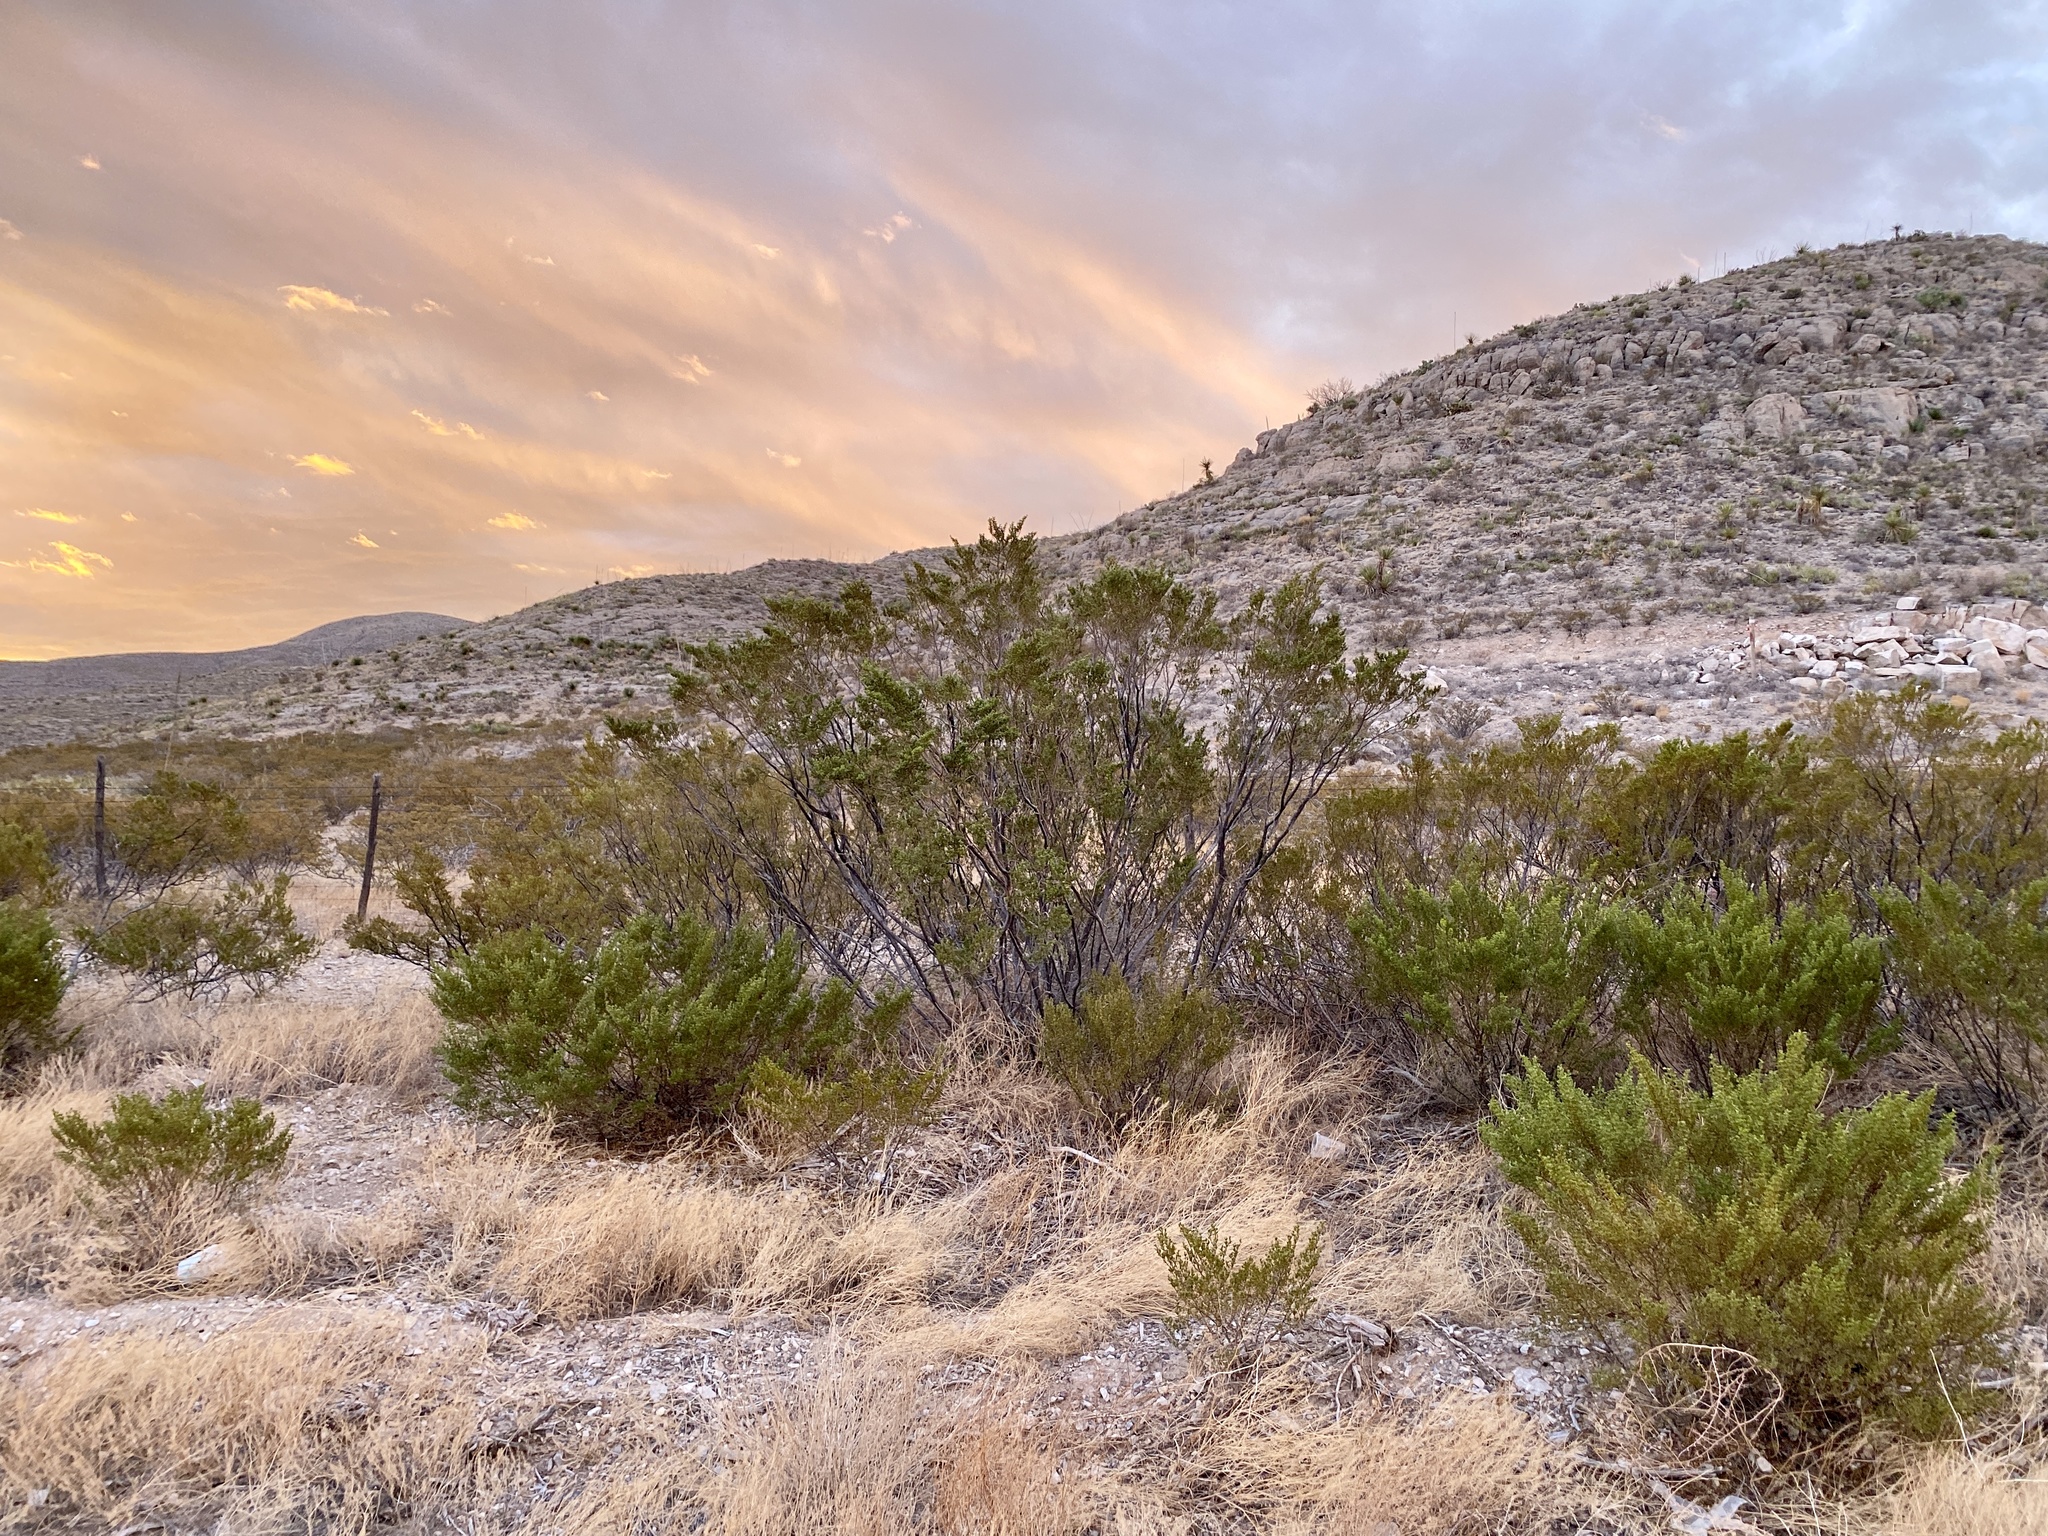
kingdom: Plantae
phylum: Tracheophyta
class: Magnoliopsida
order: Zygophyllales
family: Zygophyllaceae
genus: Larrea
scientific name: Larrea tridentata
